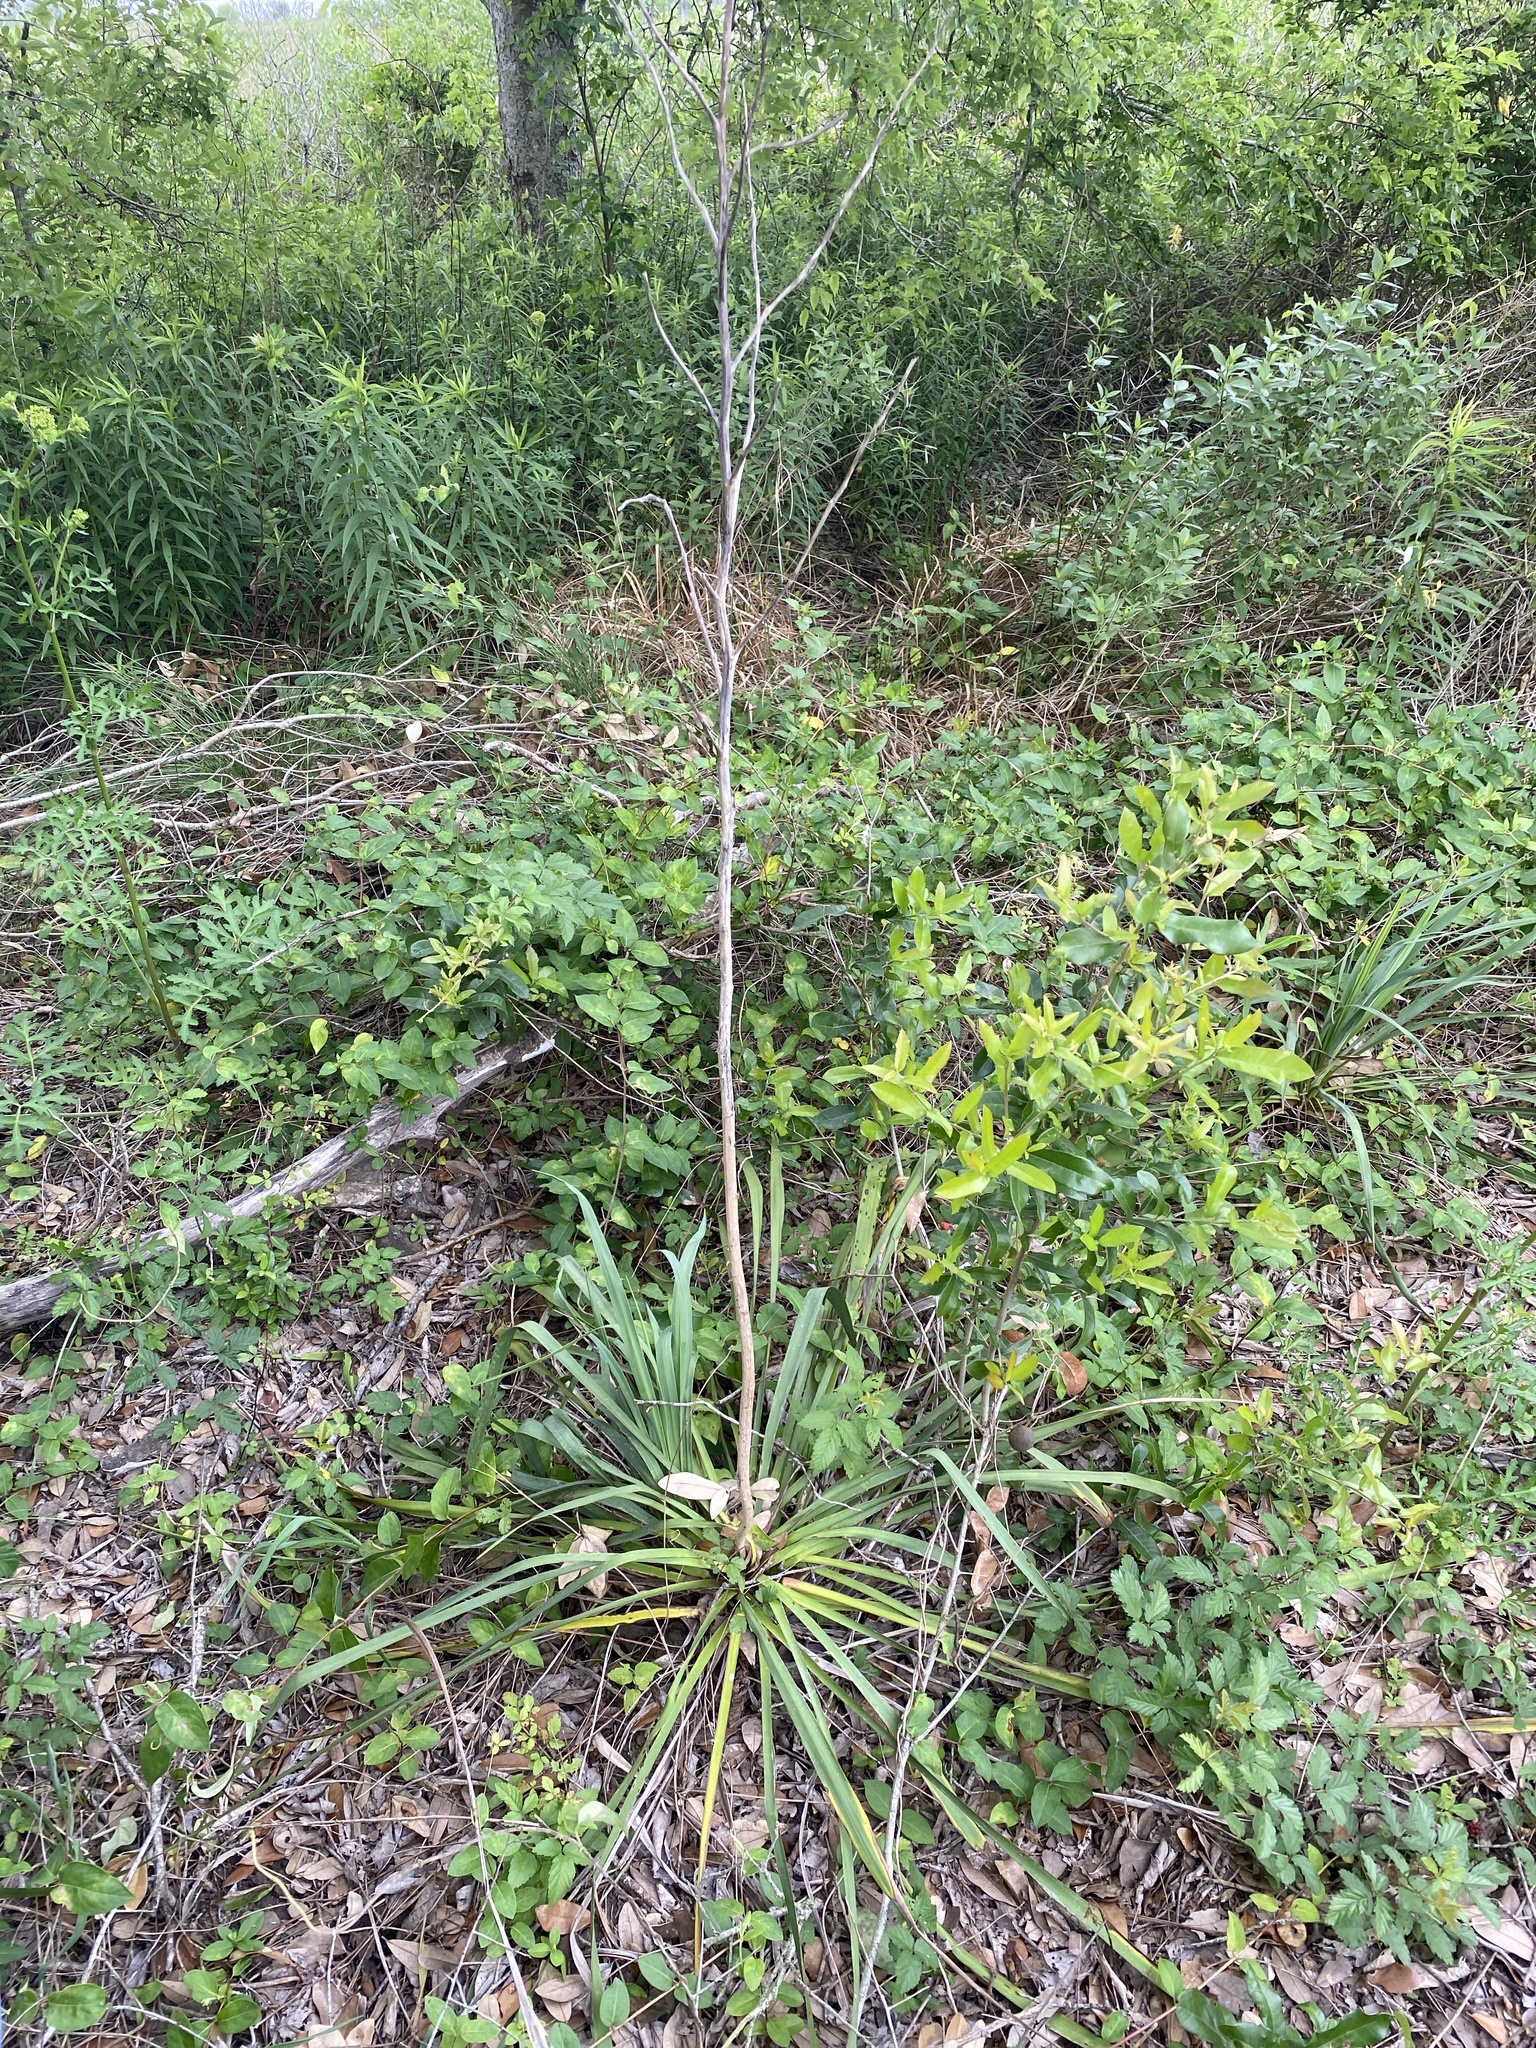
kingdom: Plantae
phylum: Tracheophyta
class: Liliopsida
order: Asparagales
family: Asparagaceae
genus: Yucca
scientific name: Yucca
